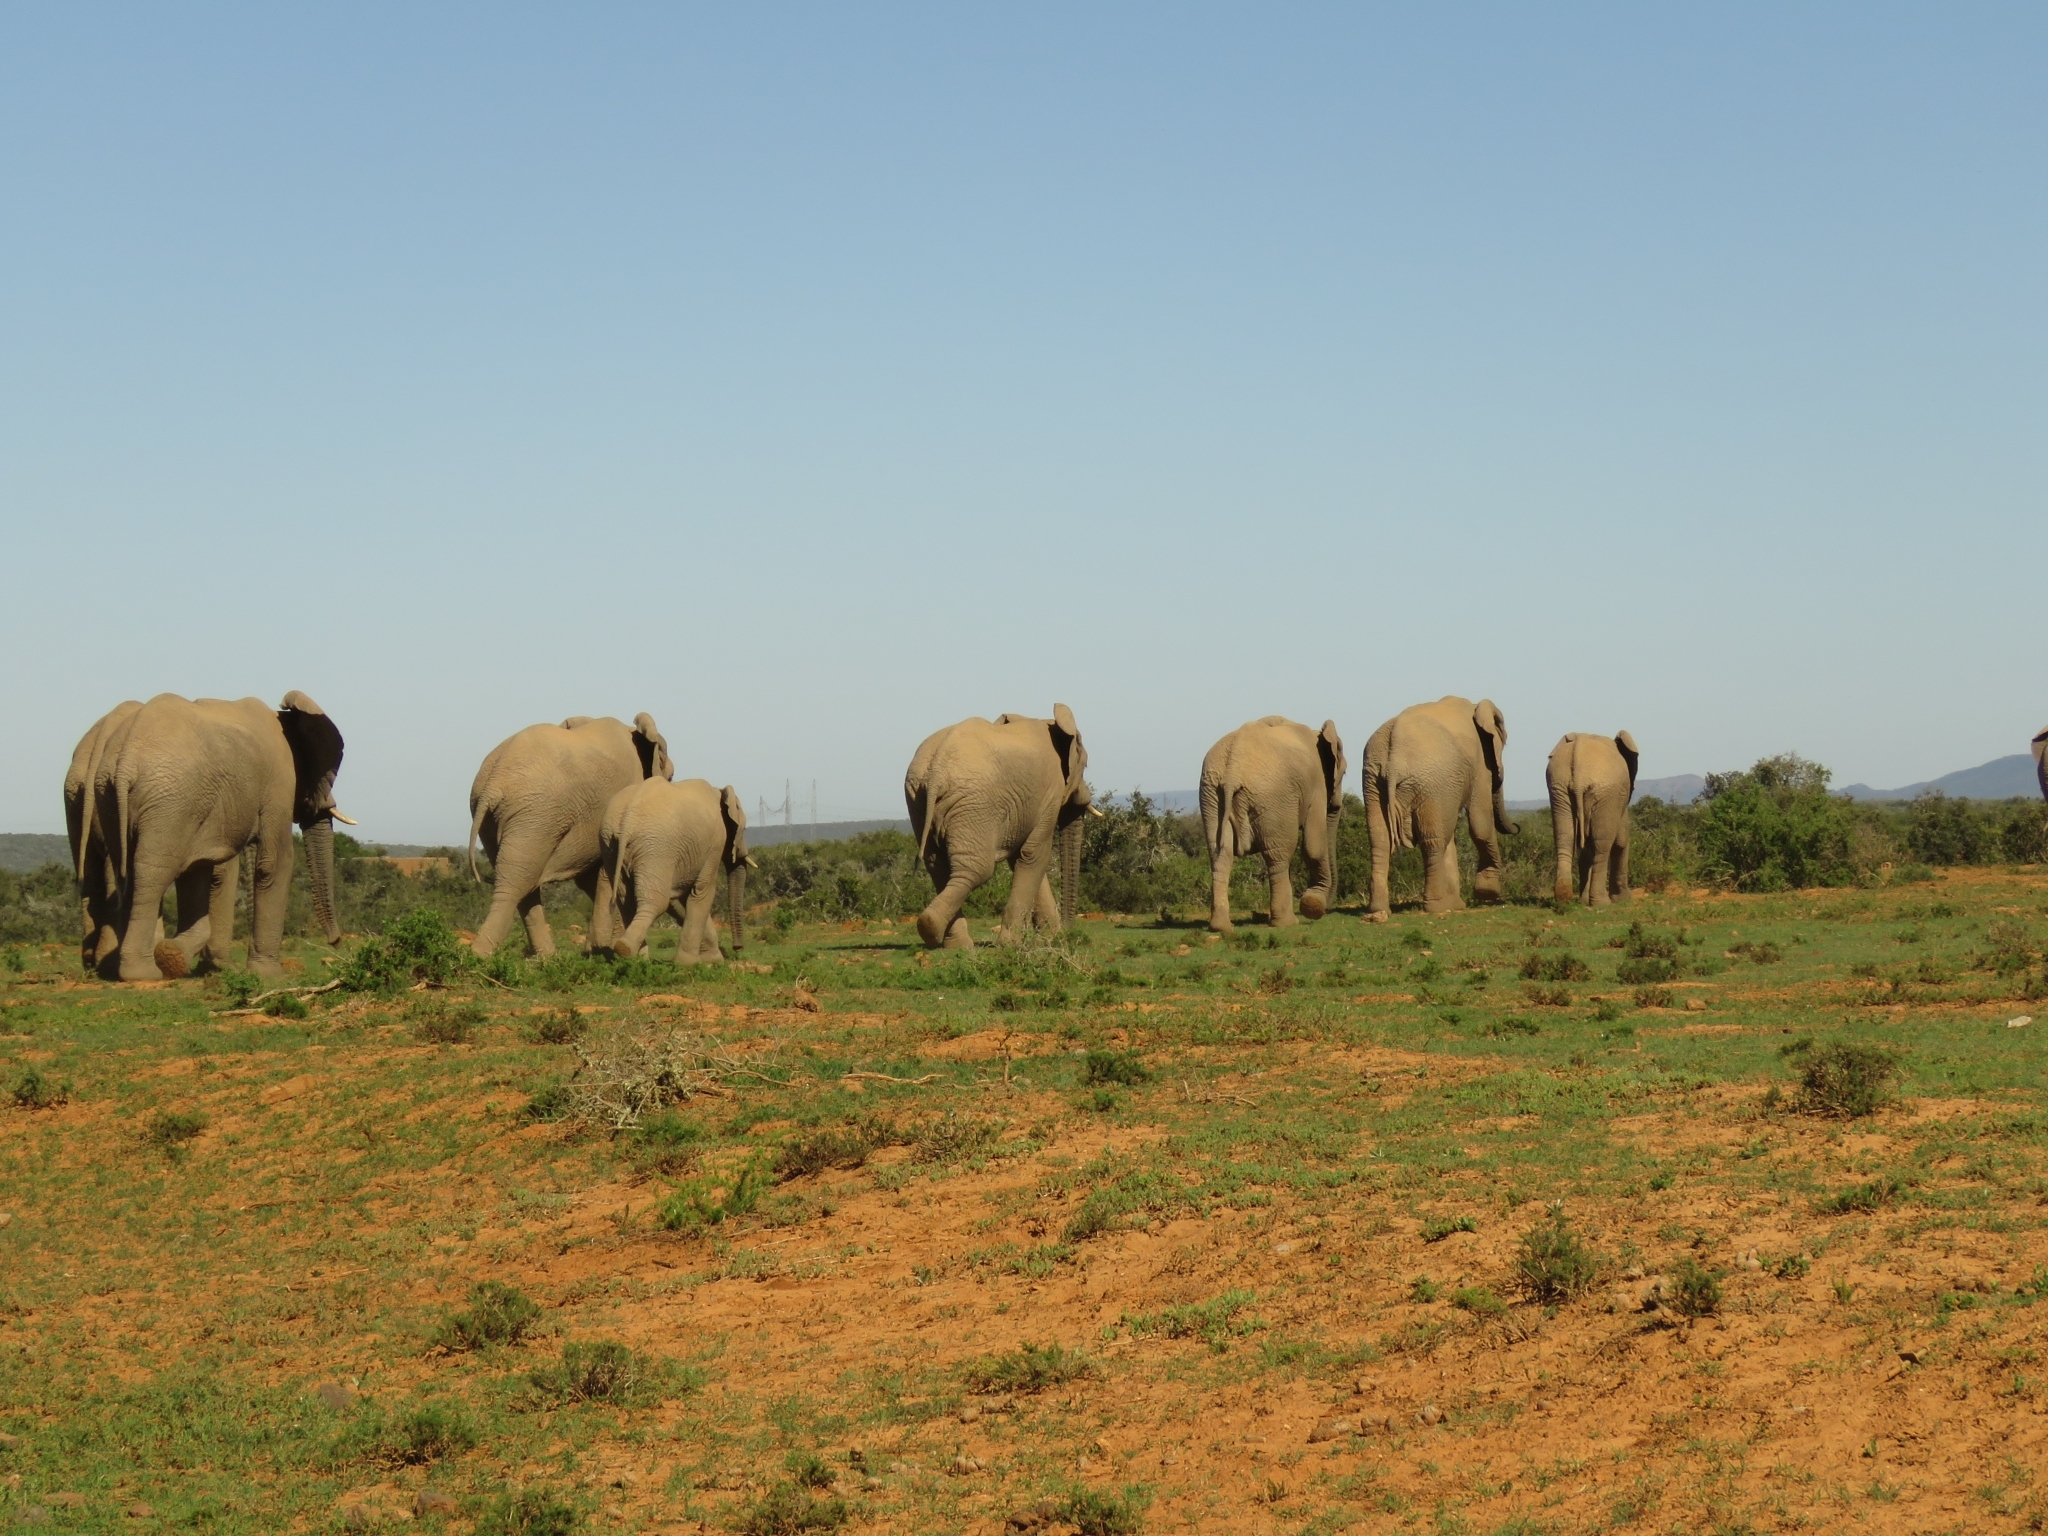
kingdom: Animalia
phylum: Chordata
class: Mammalia
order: Proboscidea
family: Elephantidae
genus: Loxodonta
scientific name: Loxodonta africana
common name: African elephant
